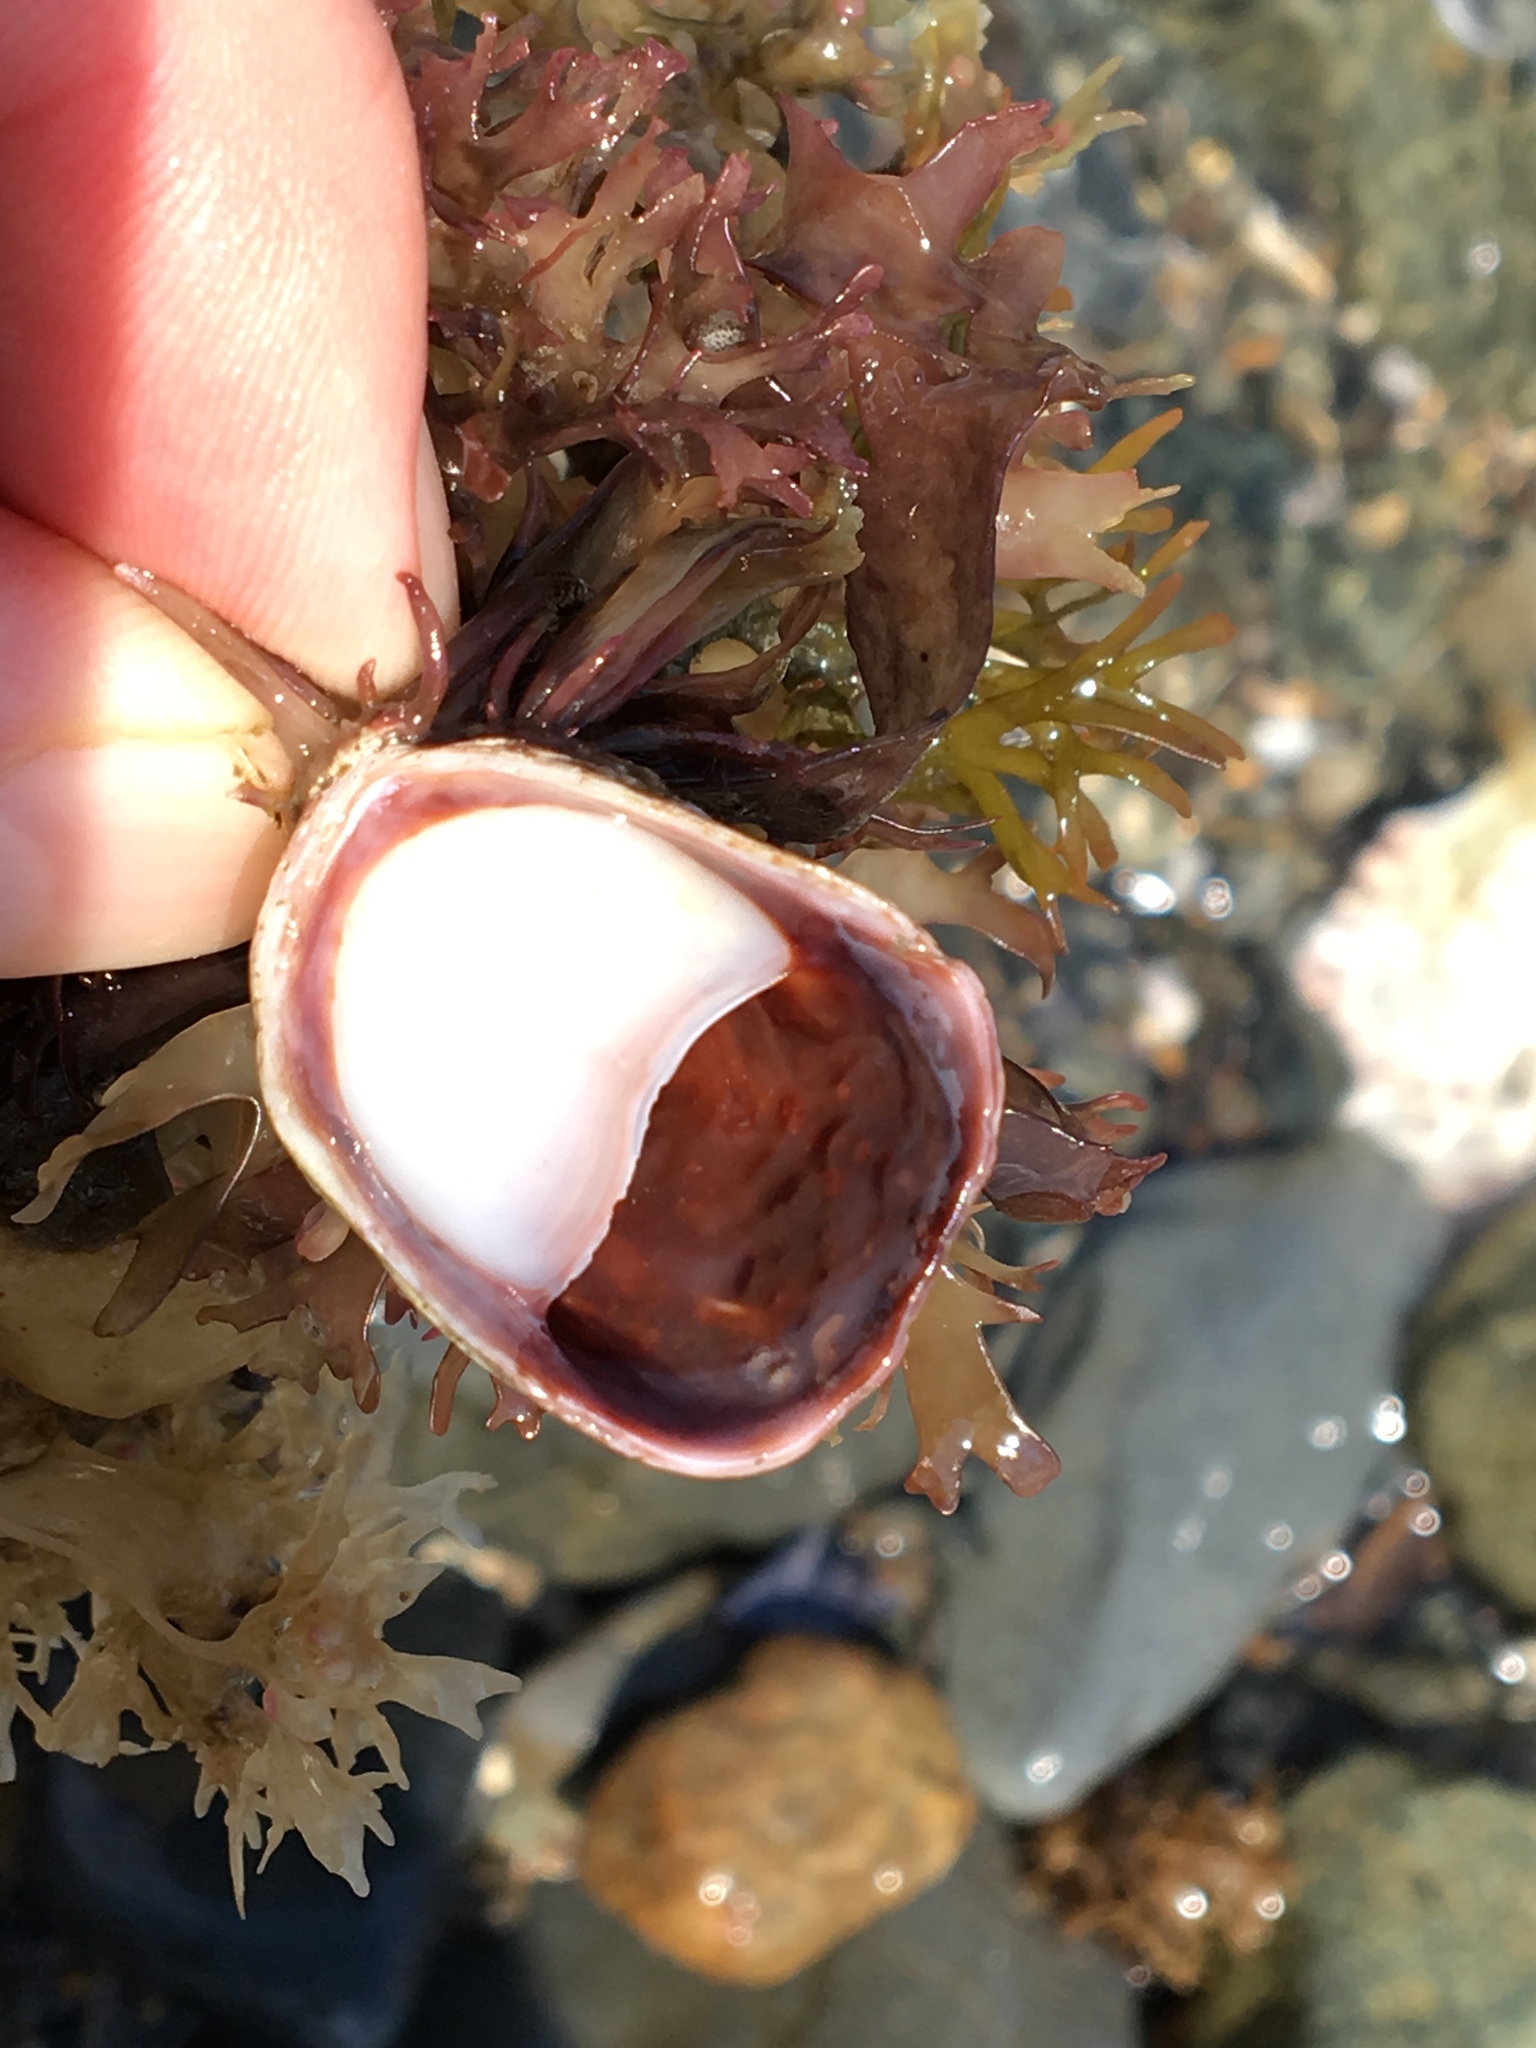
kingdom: Animalia
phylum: Mollusca
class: Gastropoda
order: Littorinimorpha
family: Calyptraeidae
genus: Crepidula
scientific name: Crepidula fornicata
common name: Slipper limpet
